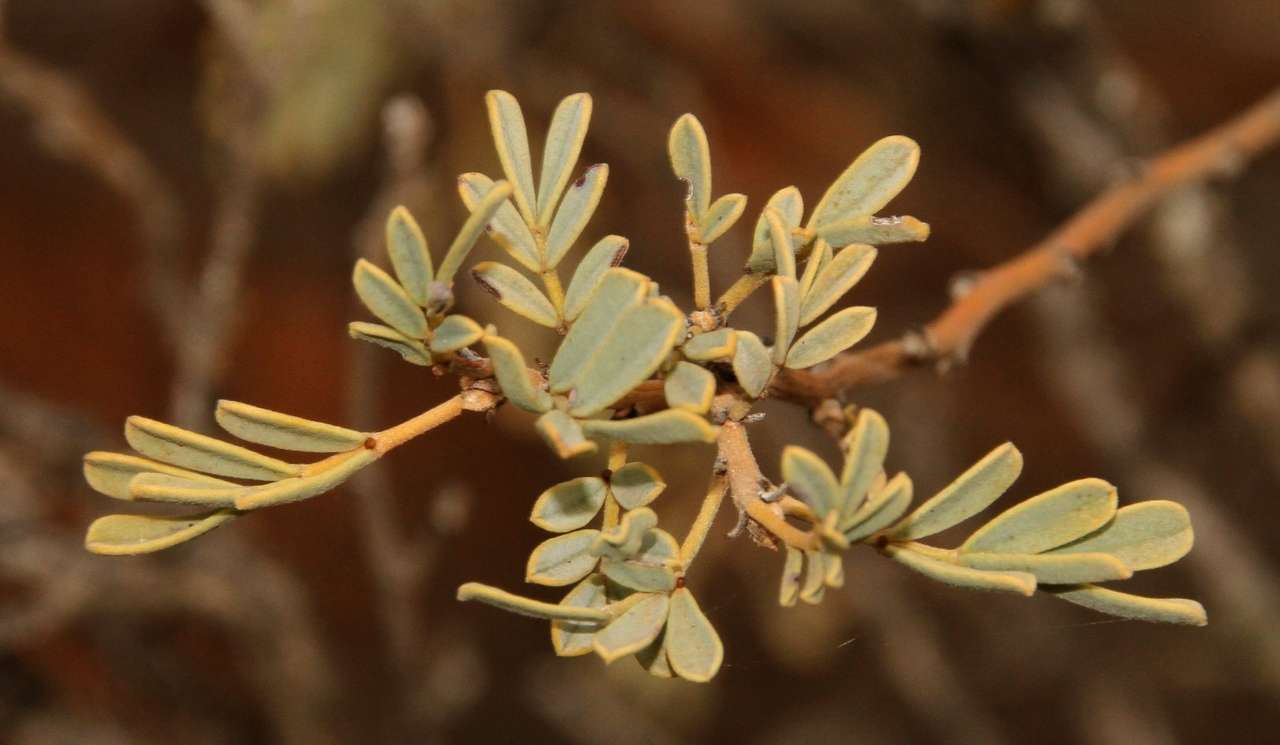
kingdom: Plantae
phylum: Tracheophyta
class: Magnoliopsida
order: Fabales
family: Fabaceae
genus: Senna
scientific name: Senna artemisioides
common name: Burnt-leaved acacia
